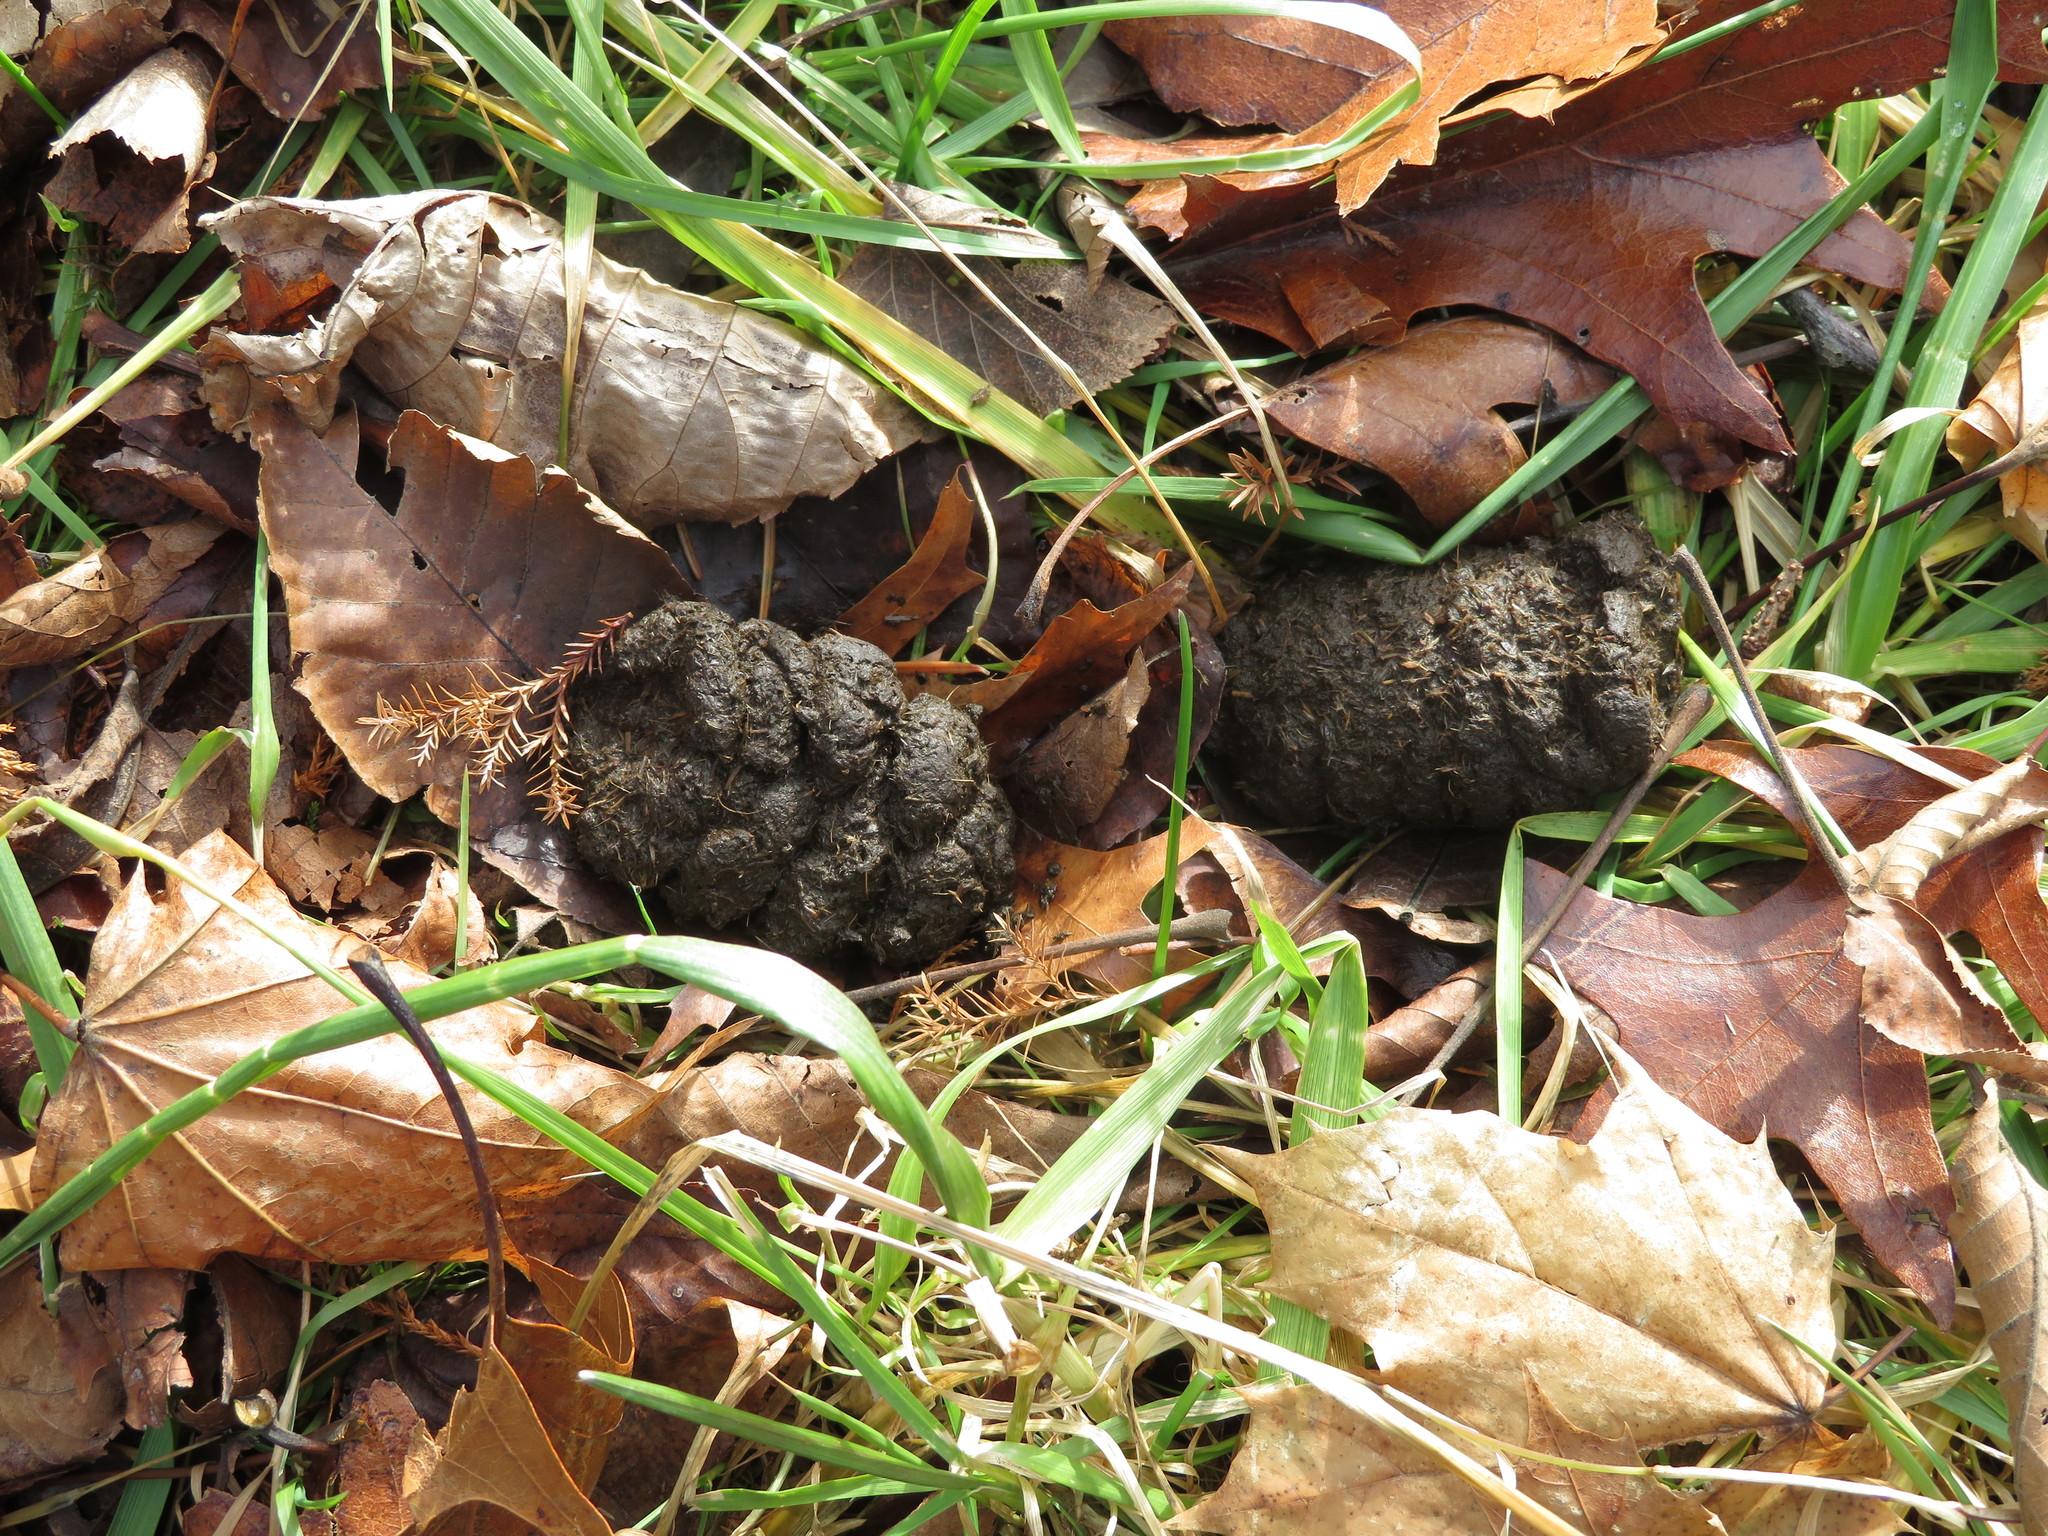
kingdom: Animalia
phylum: Chordata
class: Mammalia
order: Artiodactyla
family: Cervidae
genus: Odocoileus
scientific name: Odocoileus virginianus
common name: White-tailed deer
